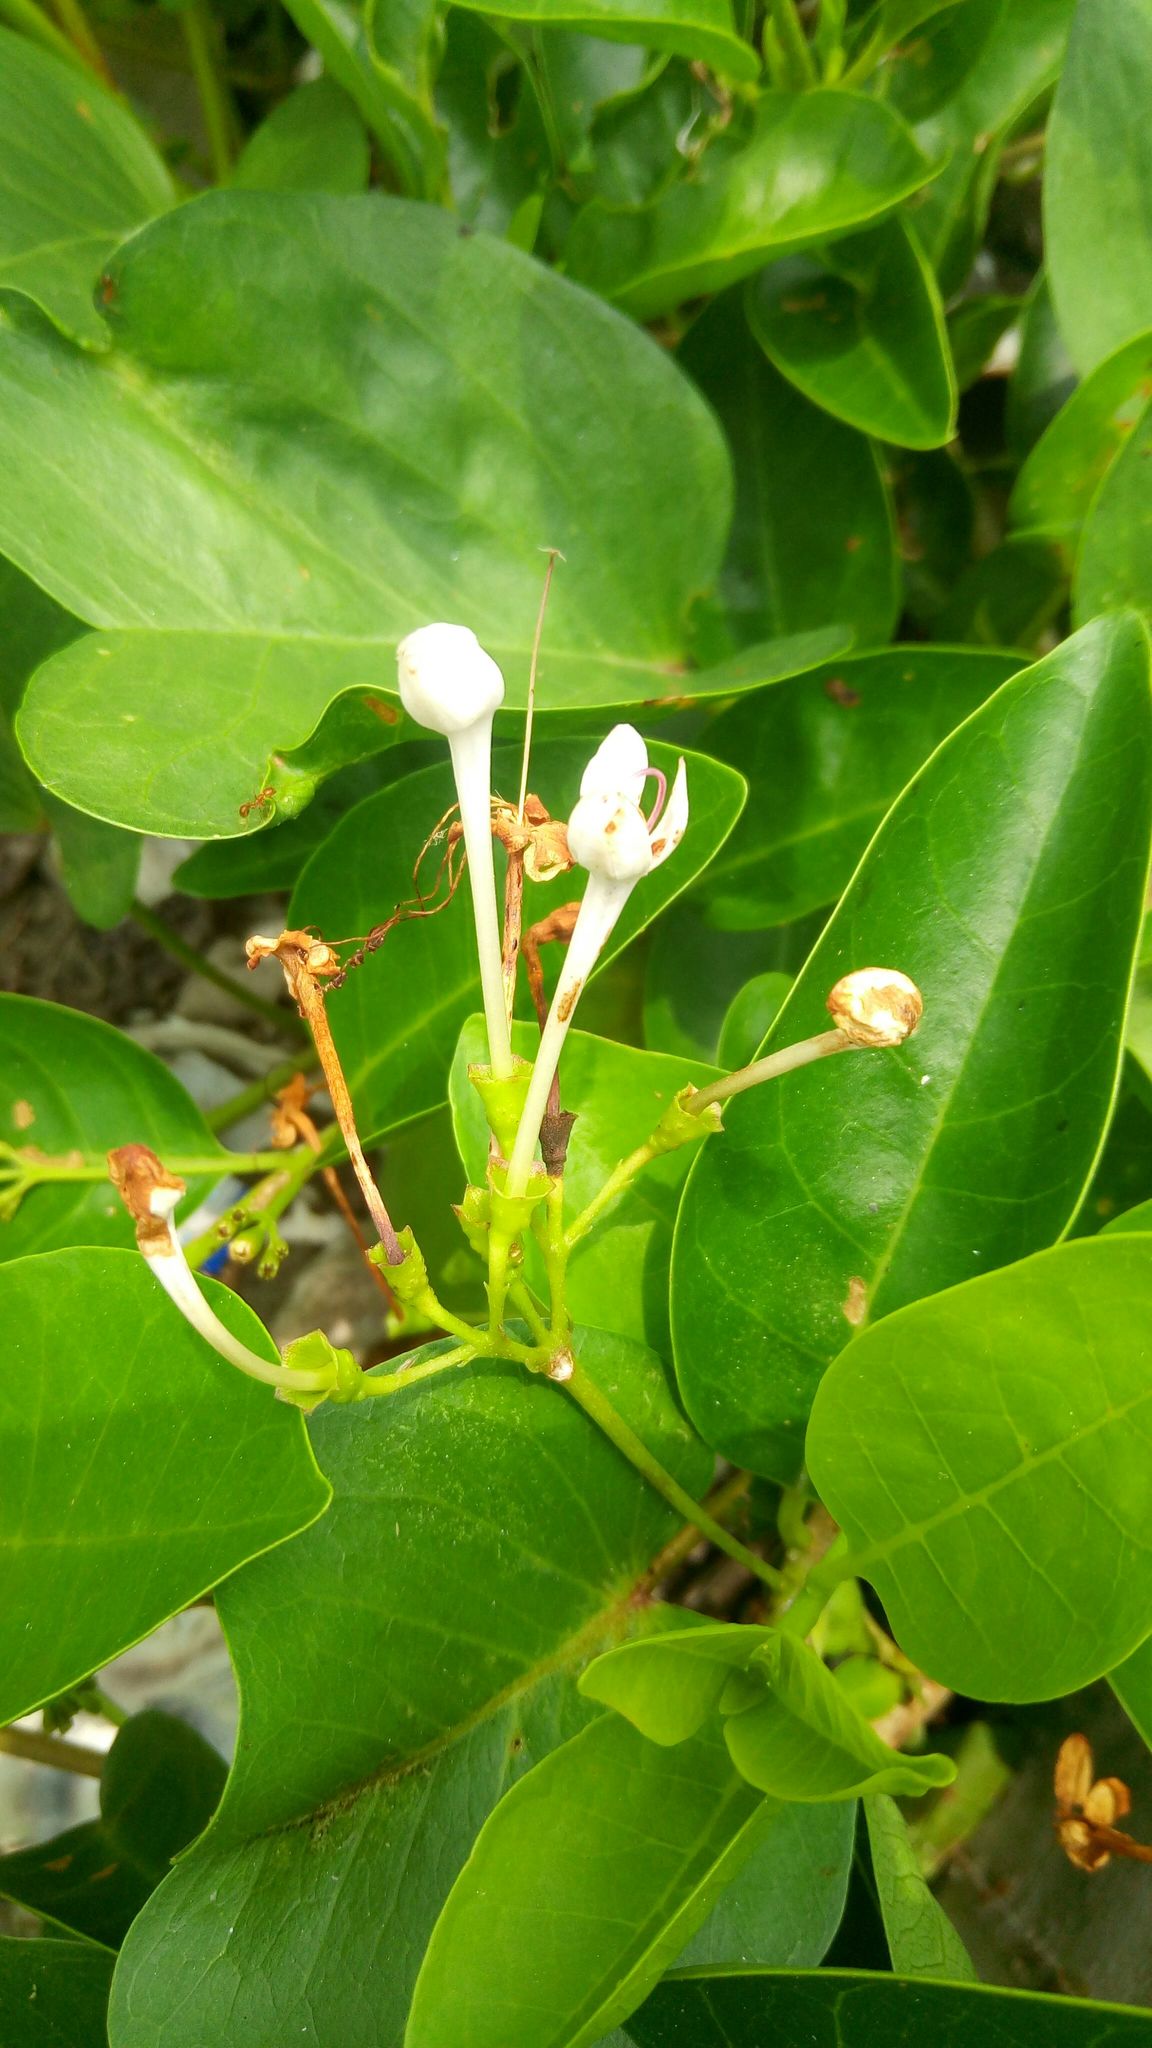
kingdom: Plantae
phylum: Tracheophyta
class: Magnoliopsida
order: Lamiales
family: Lamiaceae
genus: Volkameria
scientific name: Volkameria inermis
